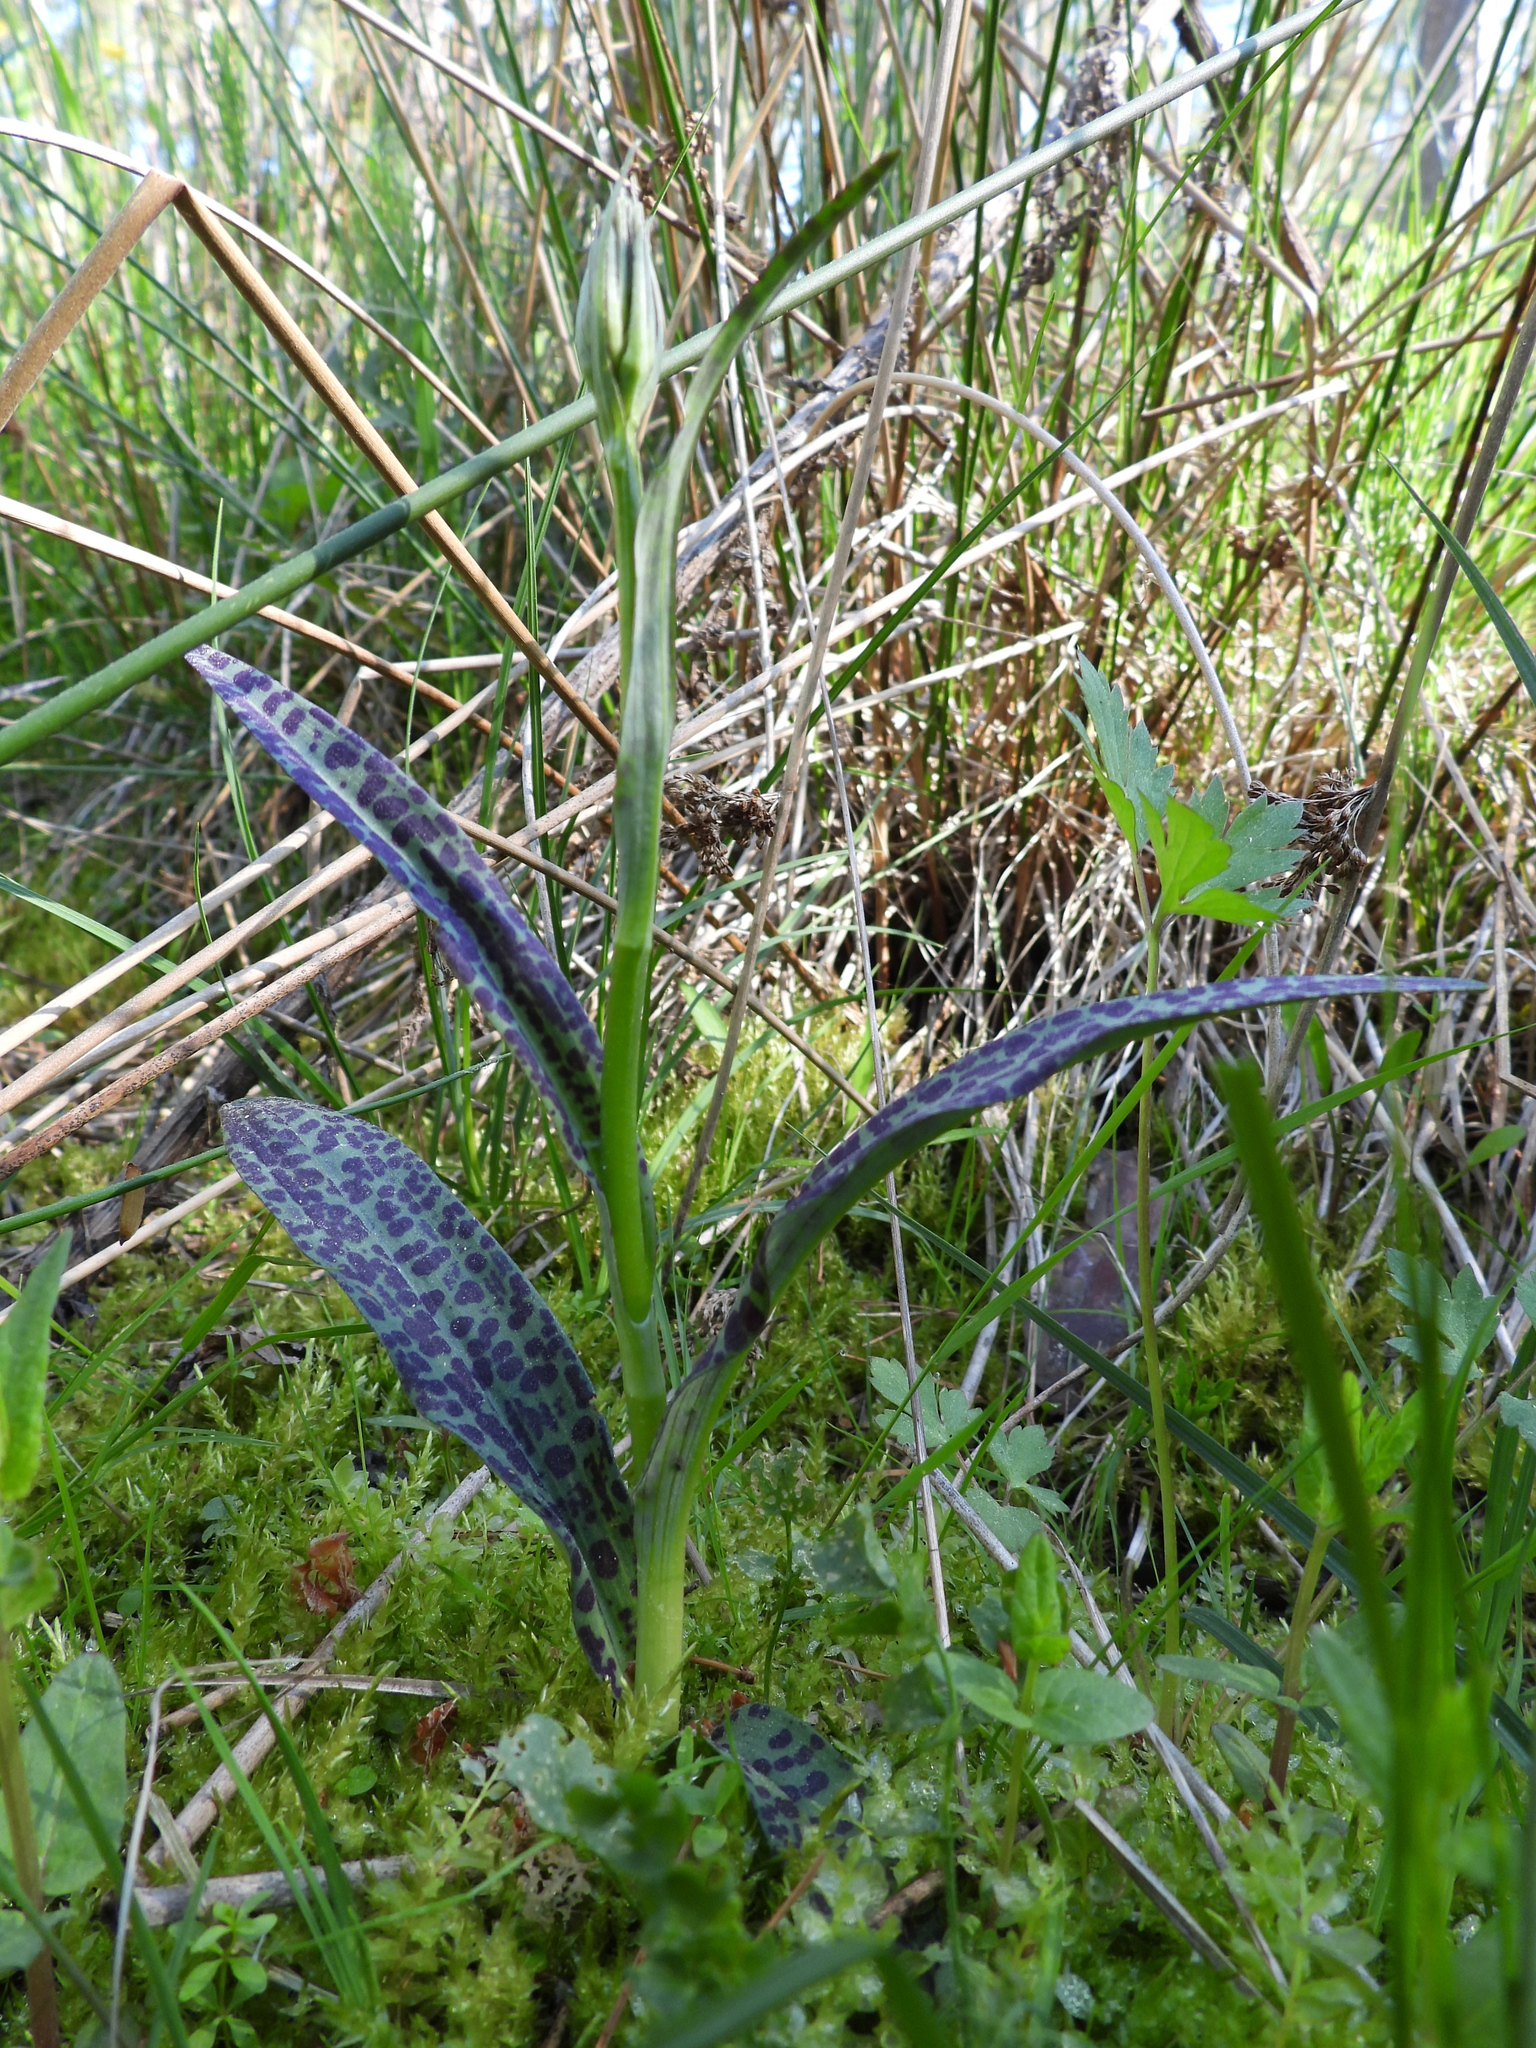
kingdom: Plantae
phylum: Tracheophyta
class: Liliopsida
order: Asparagales
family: Orchidaceae
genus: Dactylorhiza
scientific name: Dactylorhiza maculata
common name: Heath spotted-orchid
